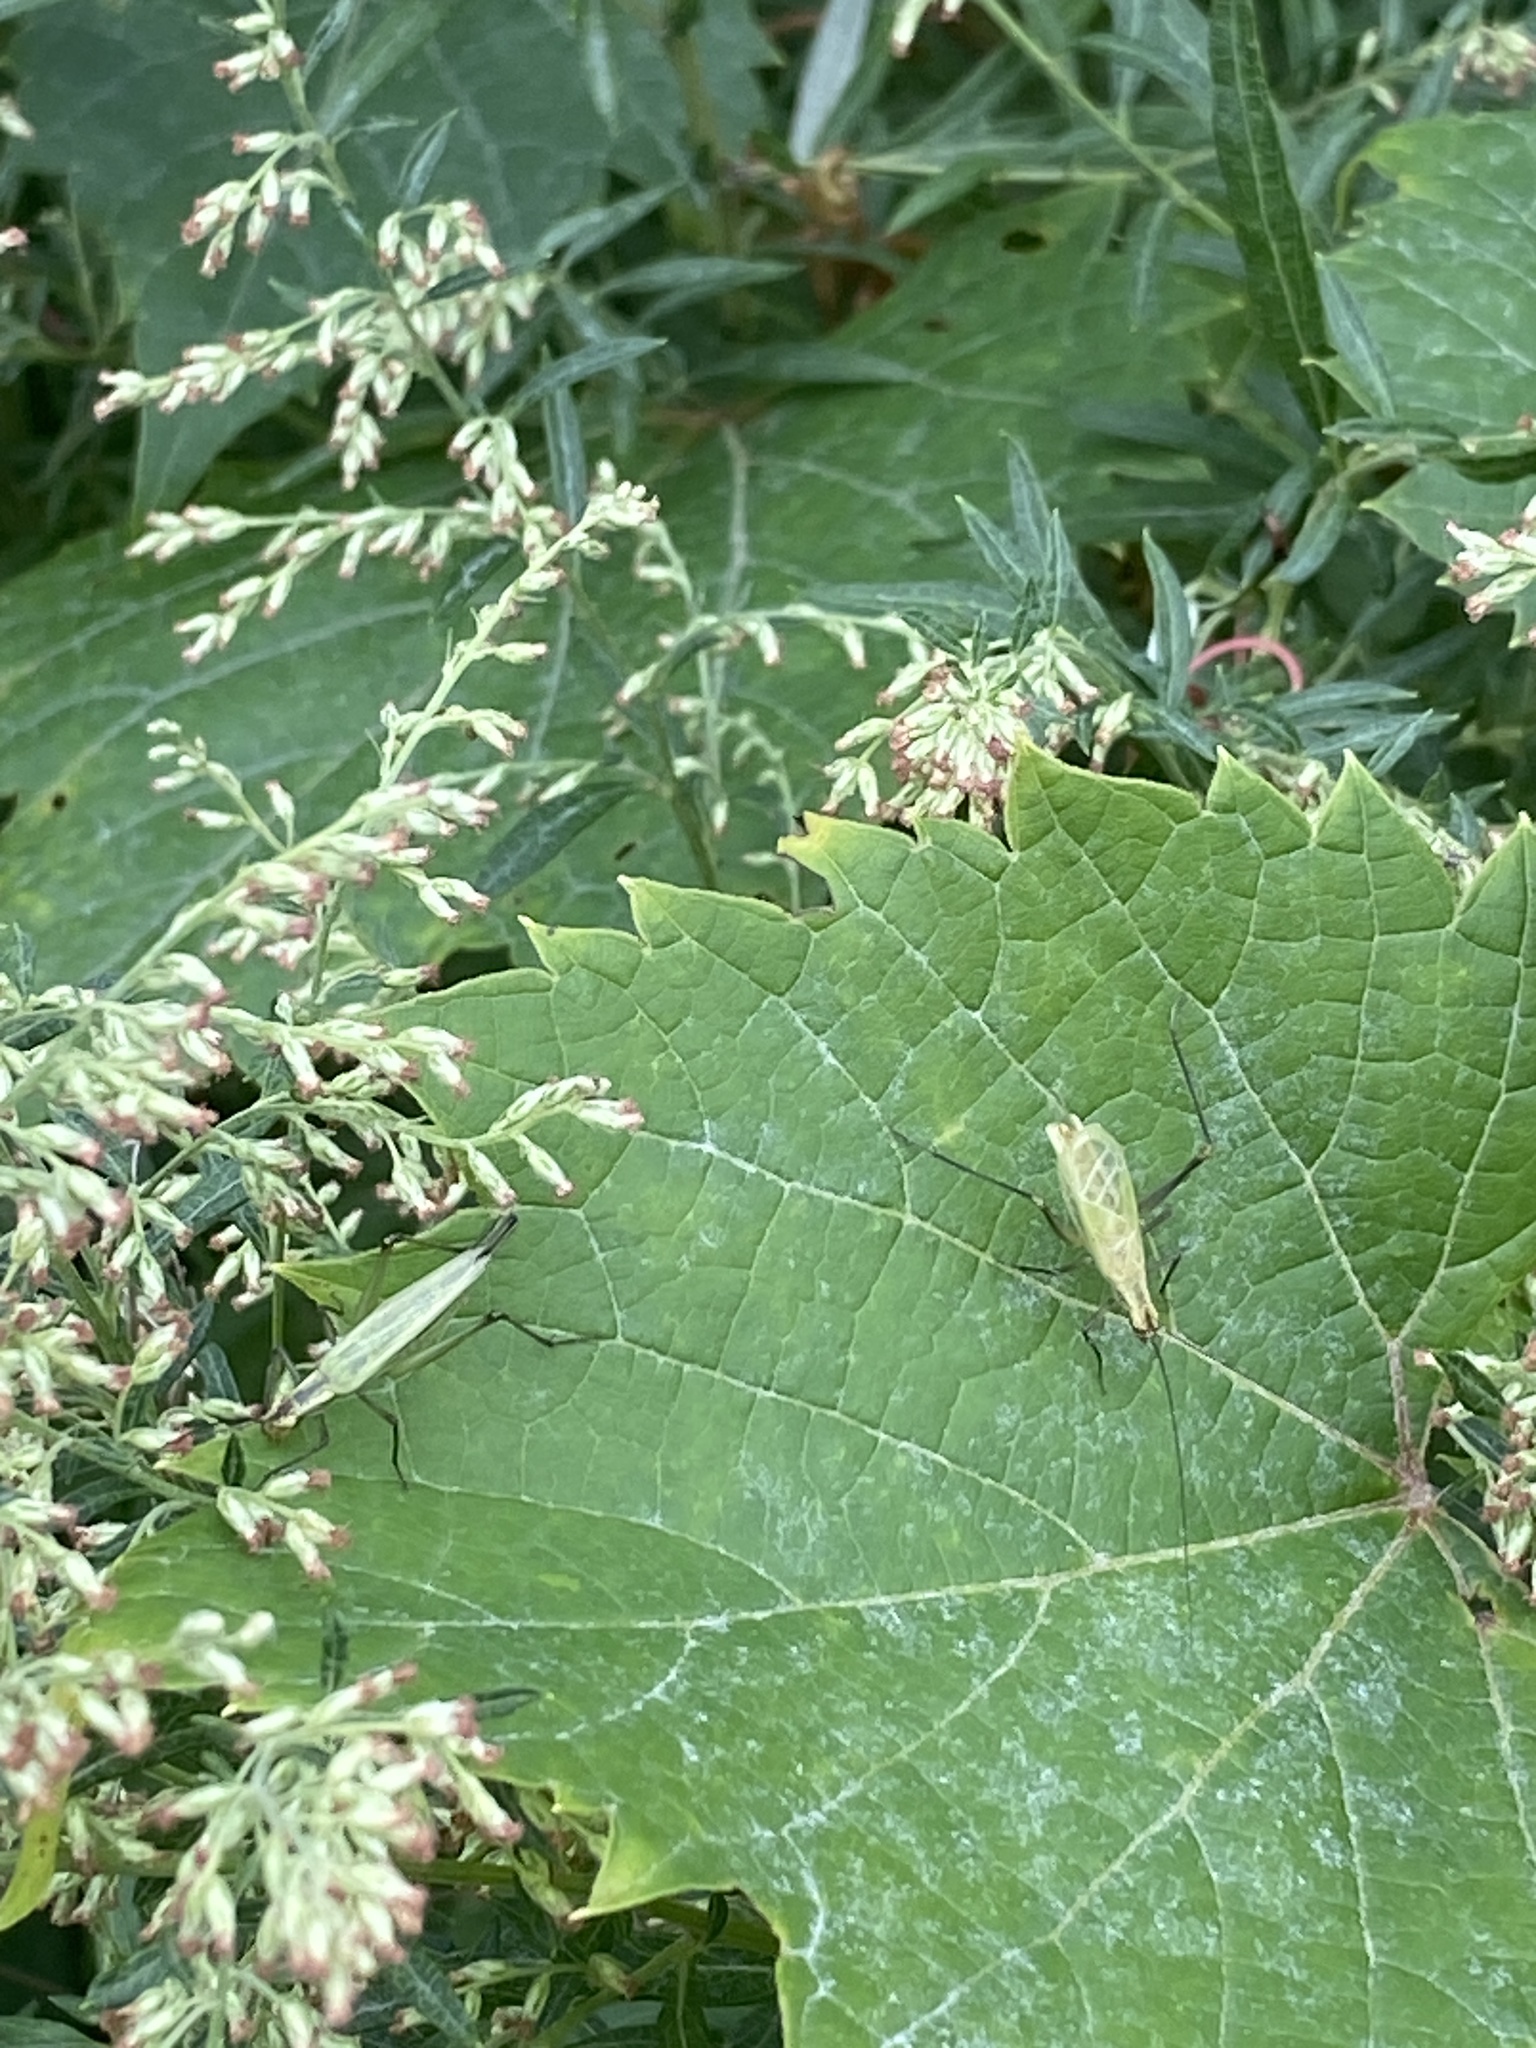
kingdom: Animalia
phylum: Arthropoda
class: Insecta
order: Orthoptera
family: Gryllidae
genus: Oecanthus
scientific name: Oecanthus nigricornis
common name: Black-horned tree cricket
